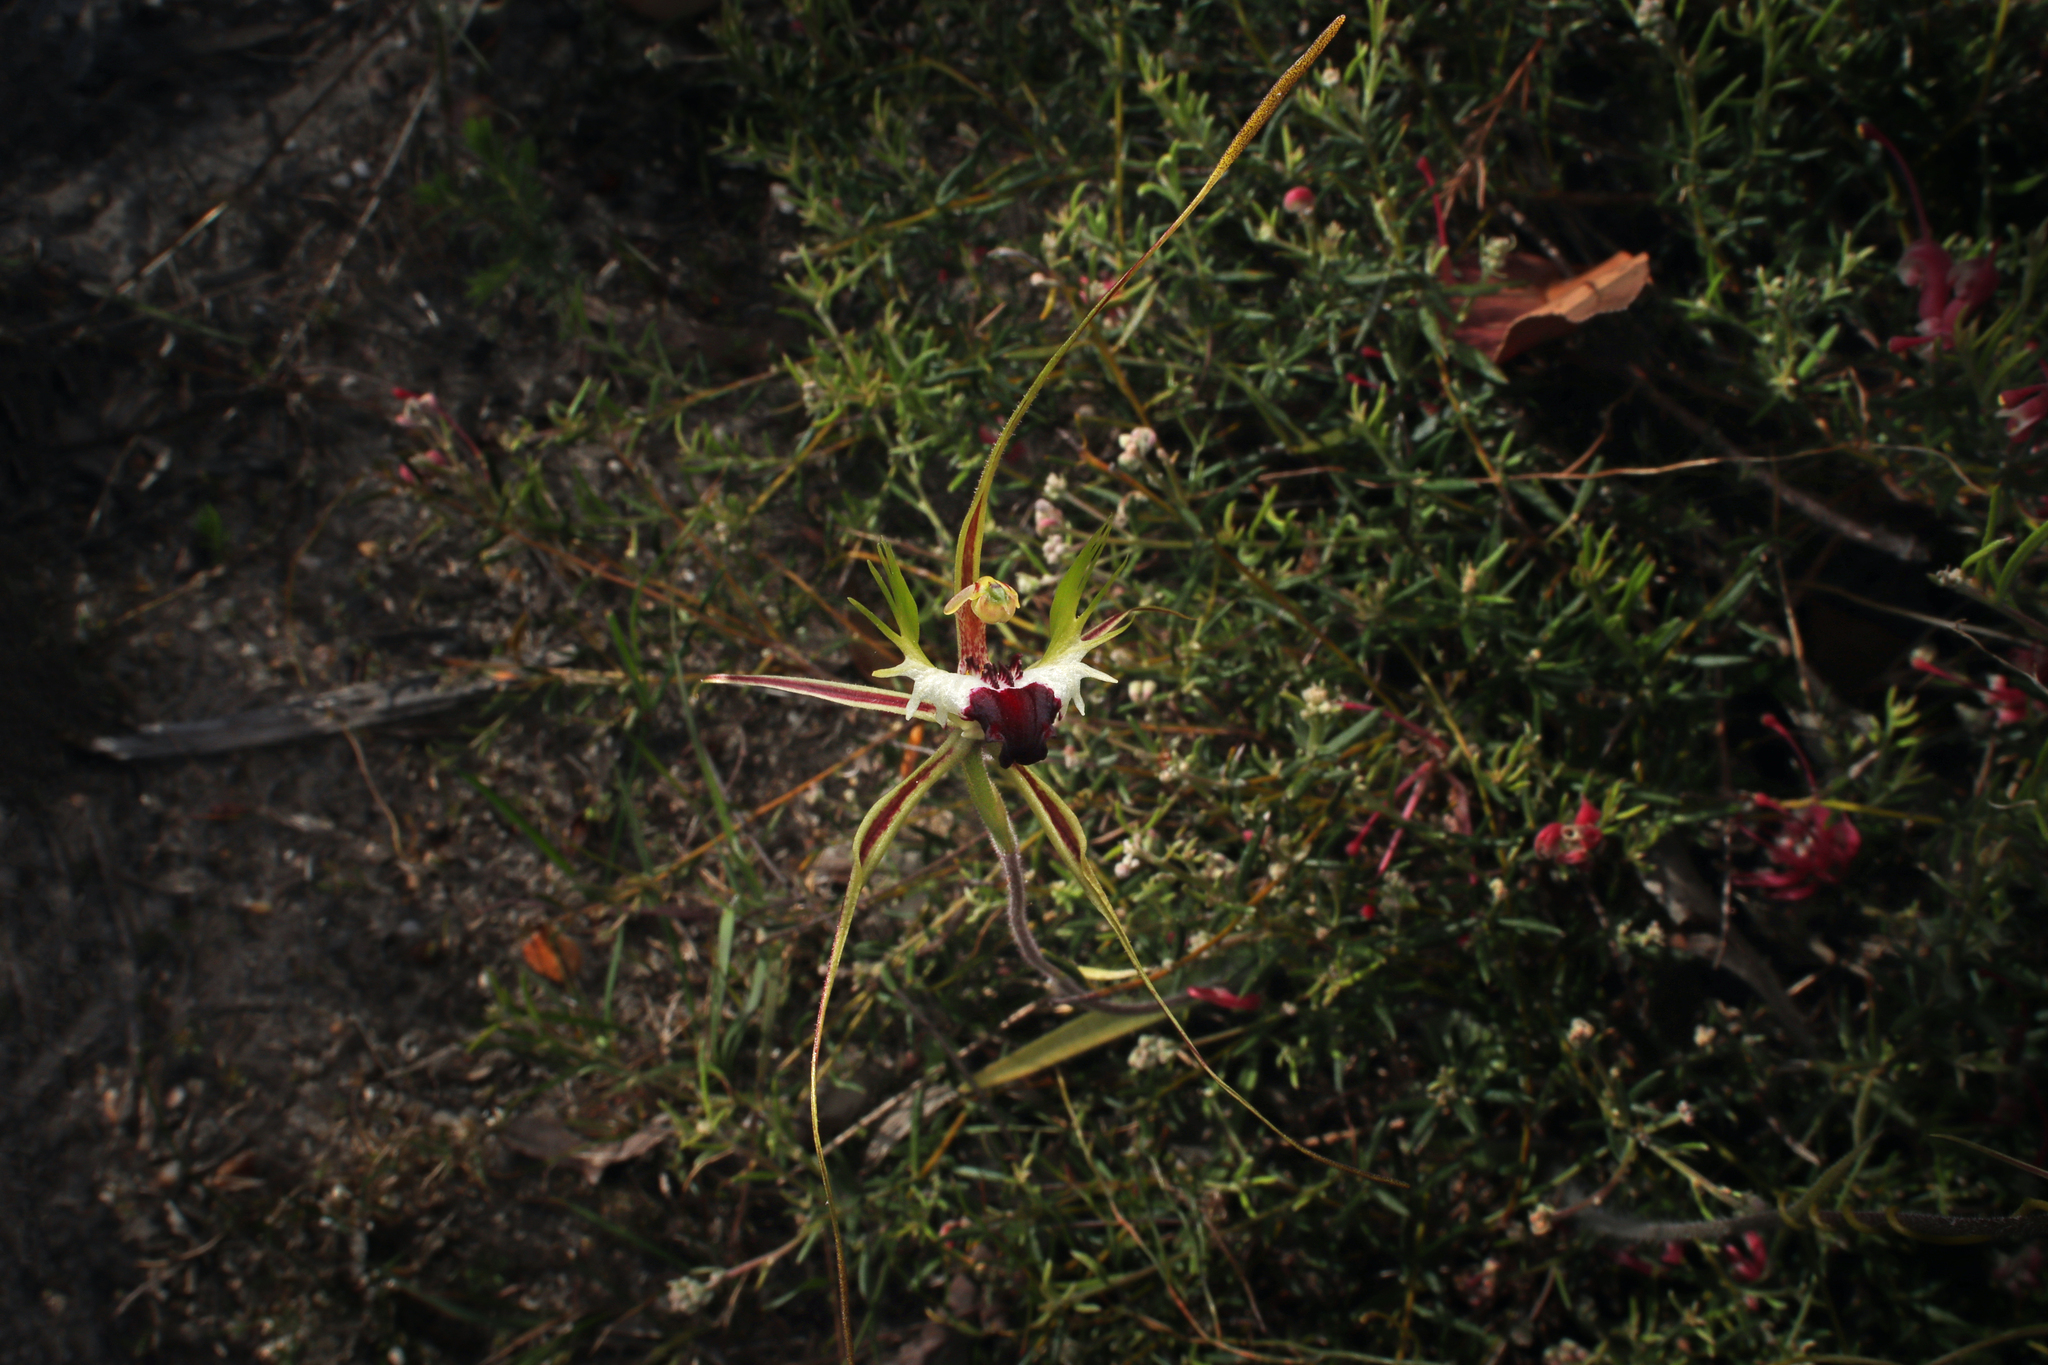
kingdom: Plantae
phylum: Tracheophyta
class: Liliopsida
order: Asparagales
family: Orchidaceae
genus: Caladenia
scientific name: Caladenia tentaculata
